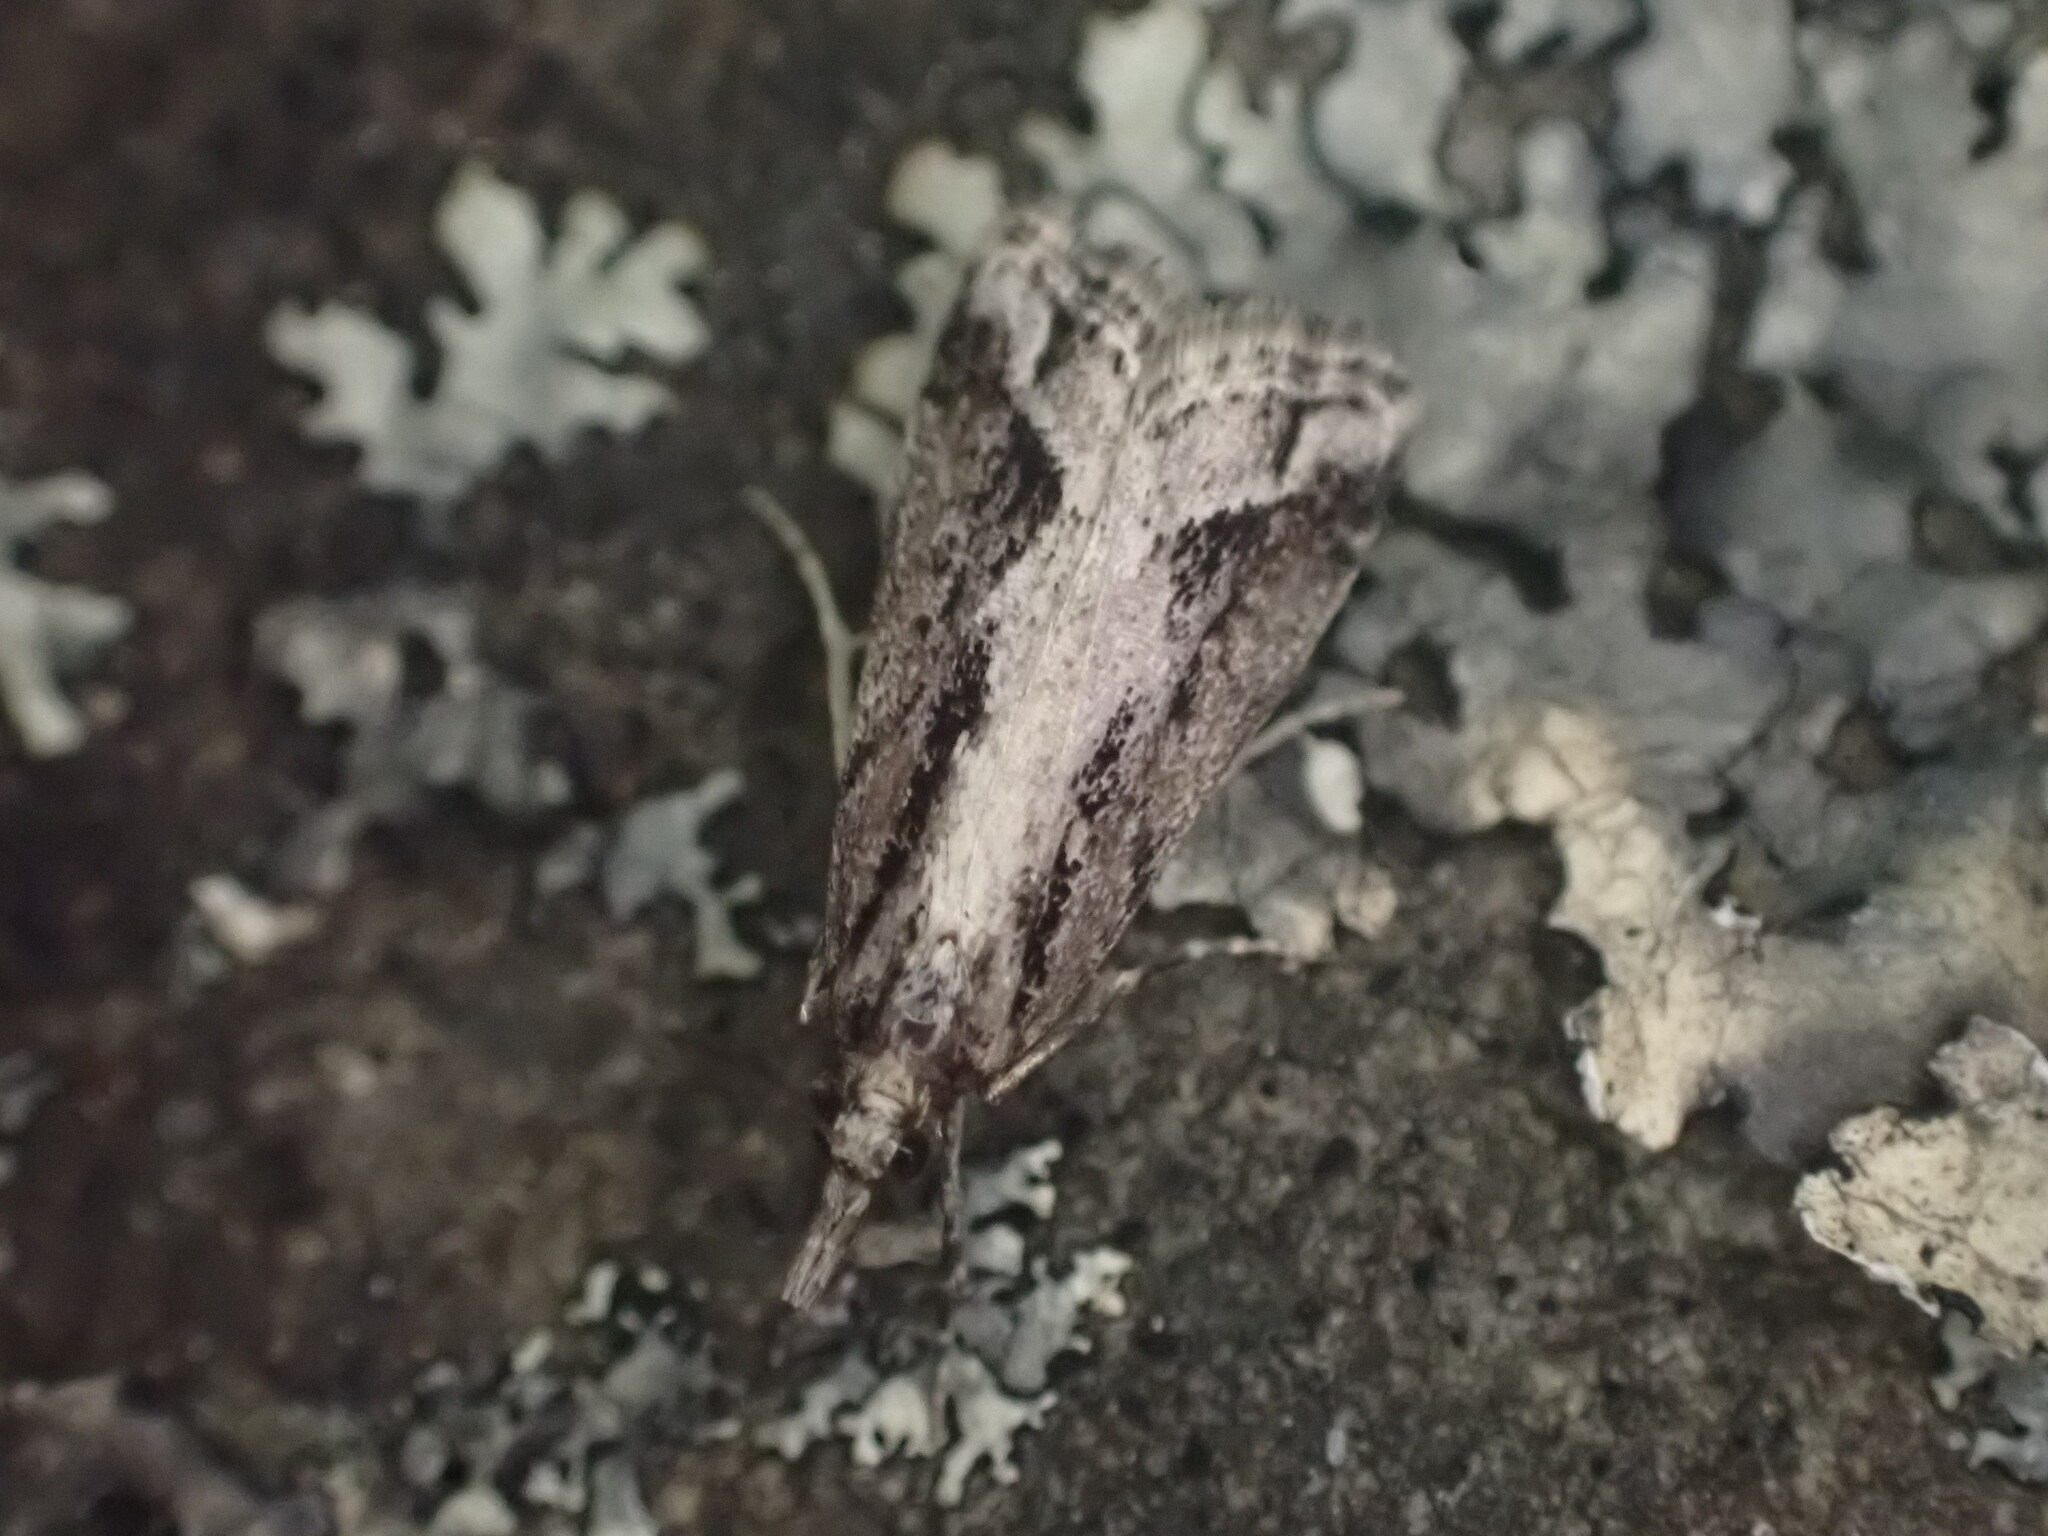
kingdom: Animalia
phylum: Arthropoda
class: Insecta
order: Lepidoptera
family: Crambidae
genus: Eudonia
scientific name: Eudonia steropaea
